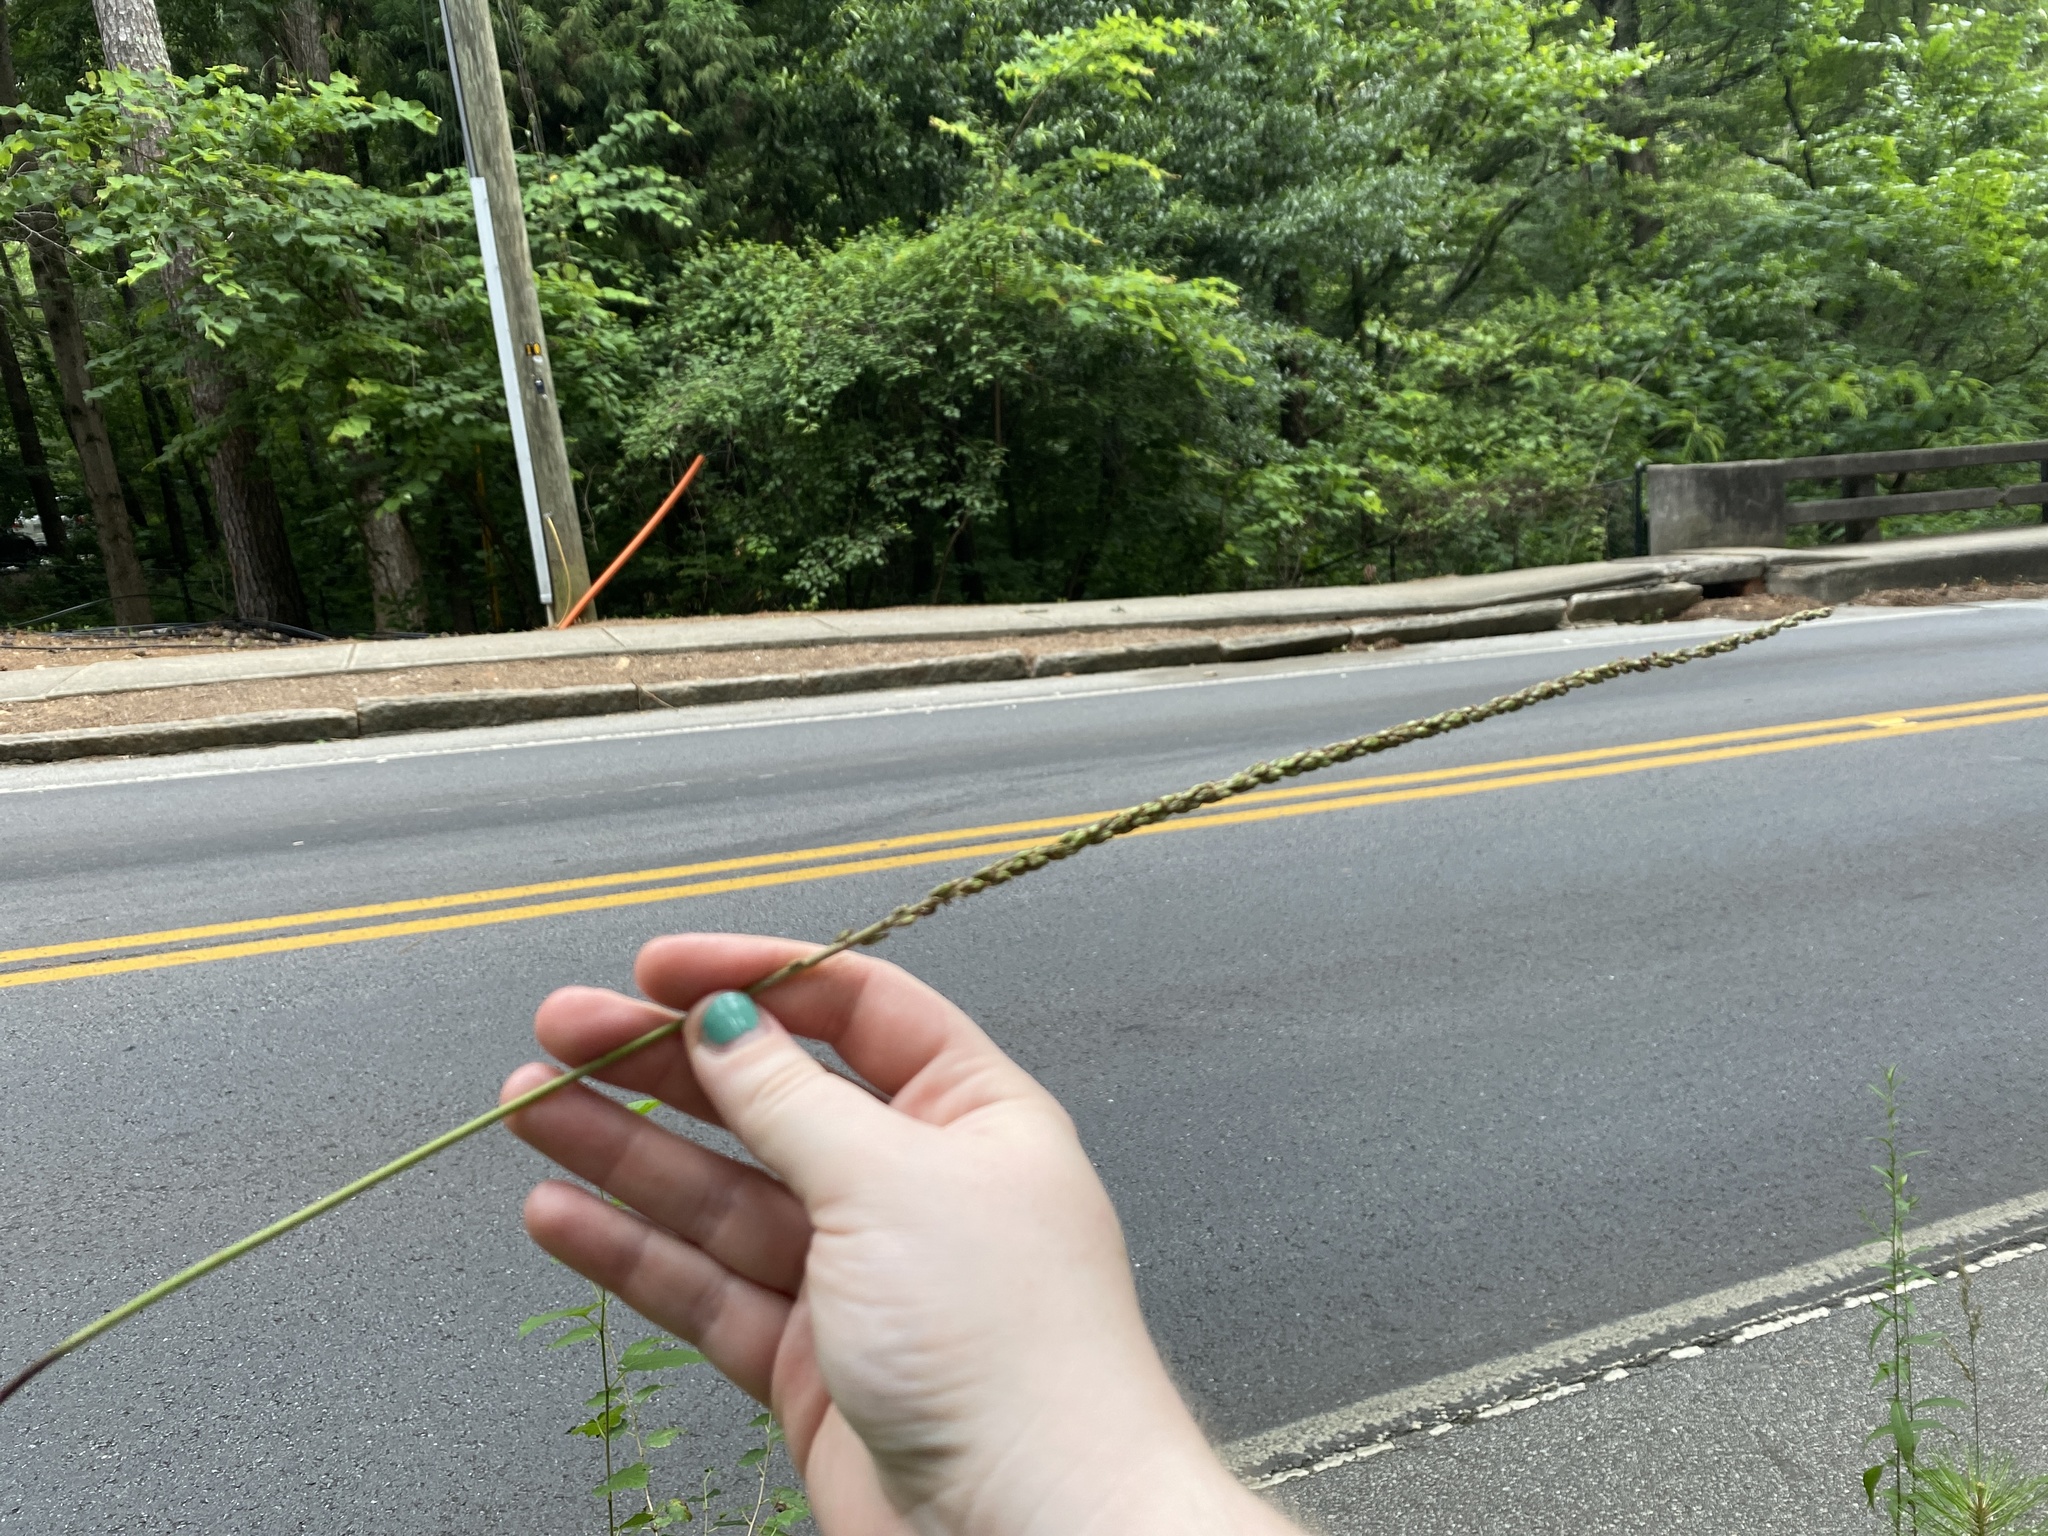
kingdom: Plantae
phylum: Tracheophyta
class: Magnoliopsida
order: Lamiales
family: Plantaginaceae
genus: Plantago
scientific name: Plantago rugelii
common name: American plantain
